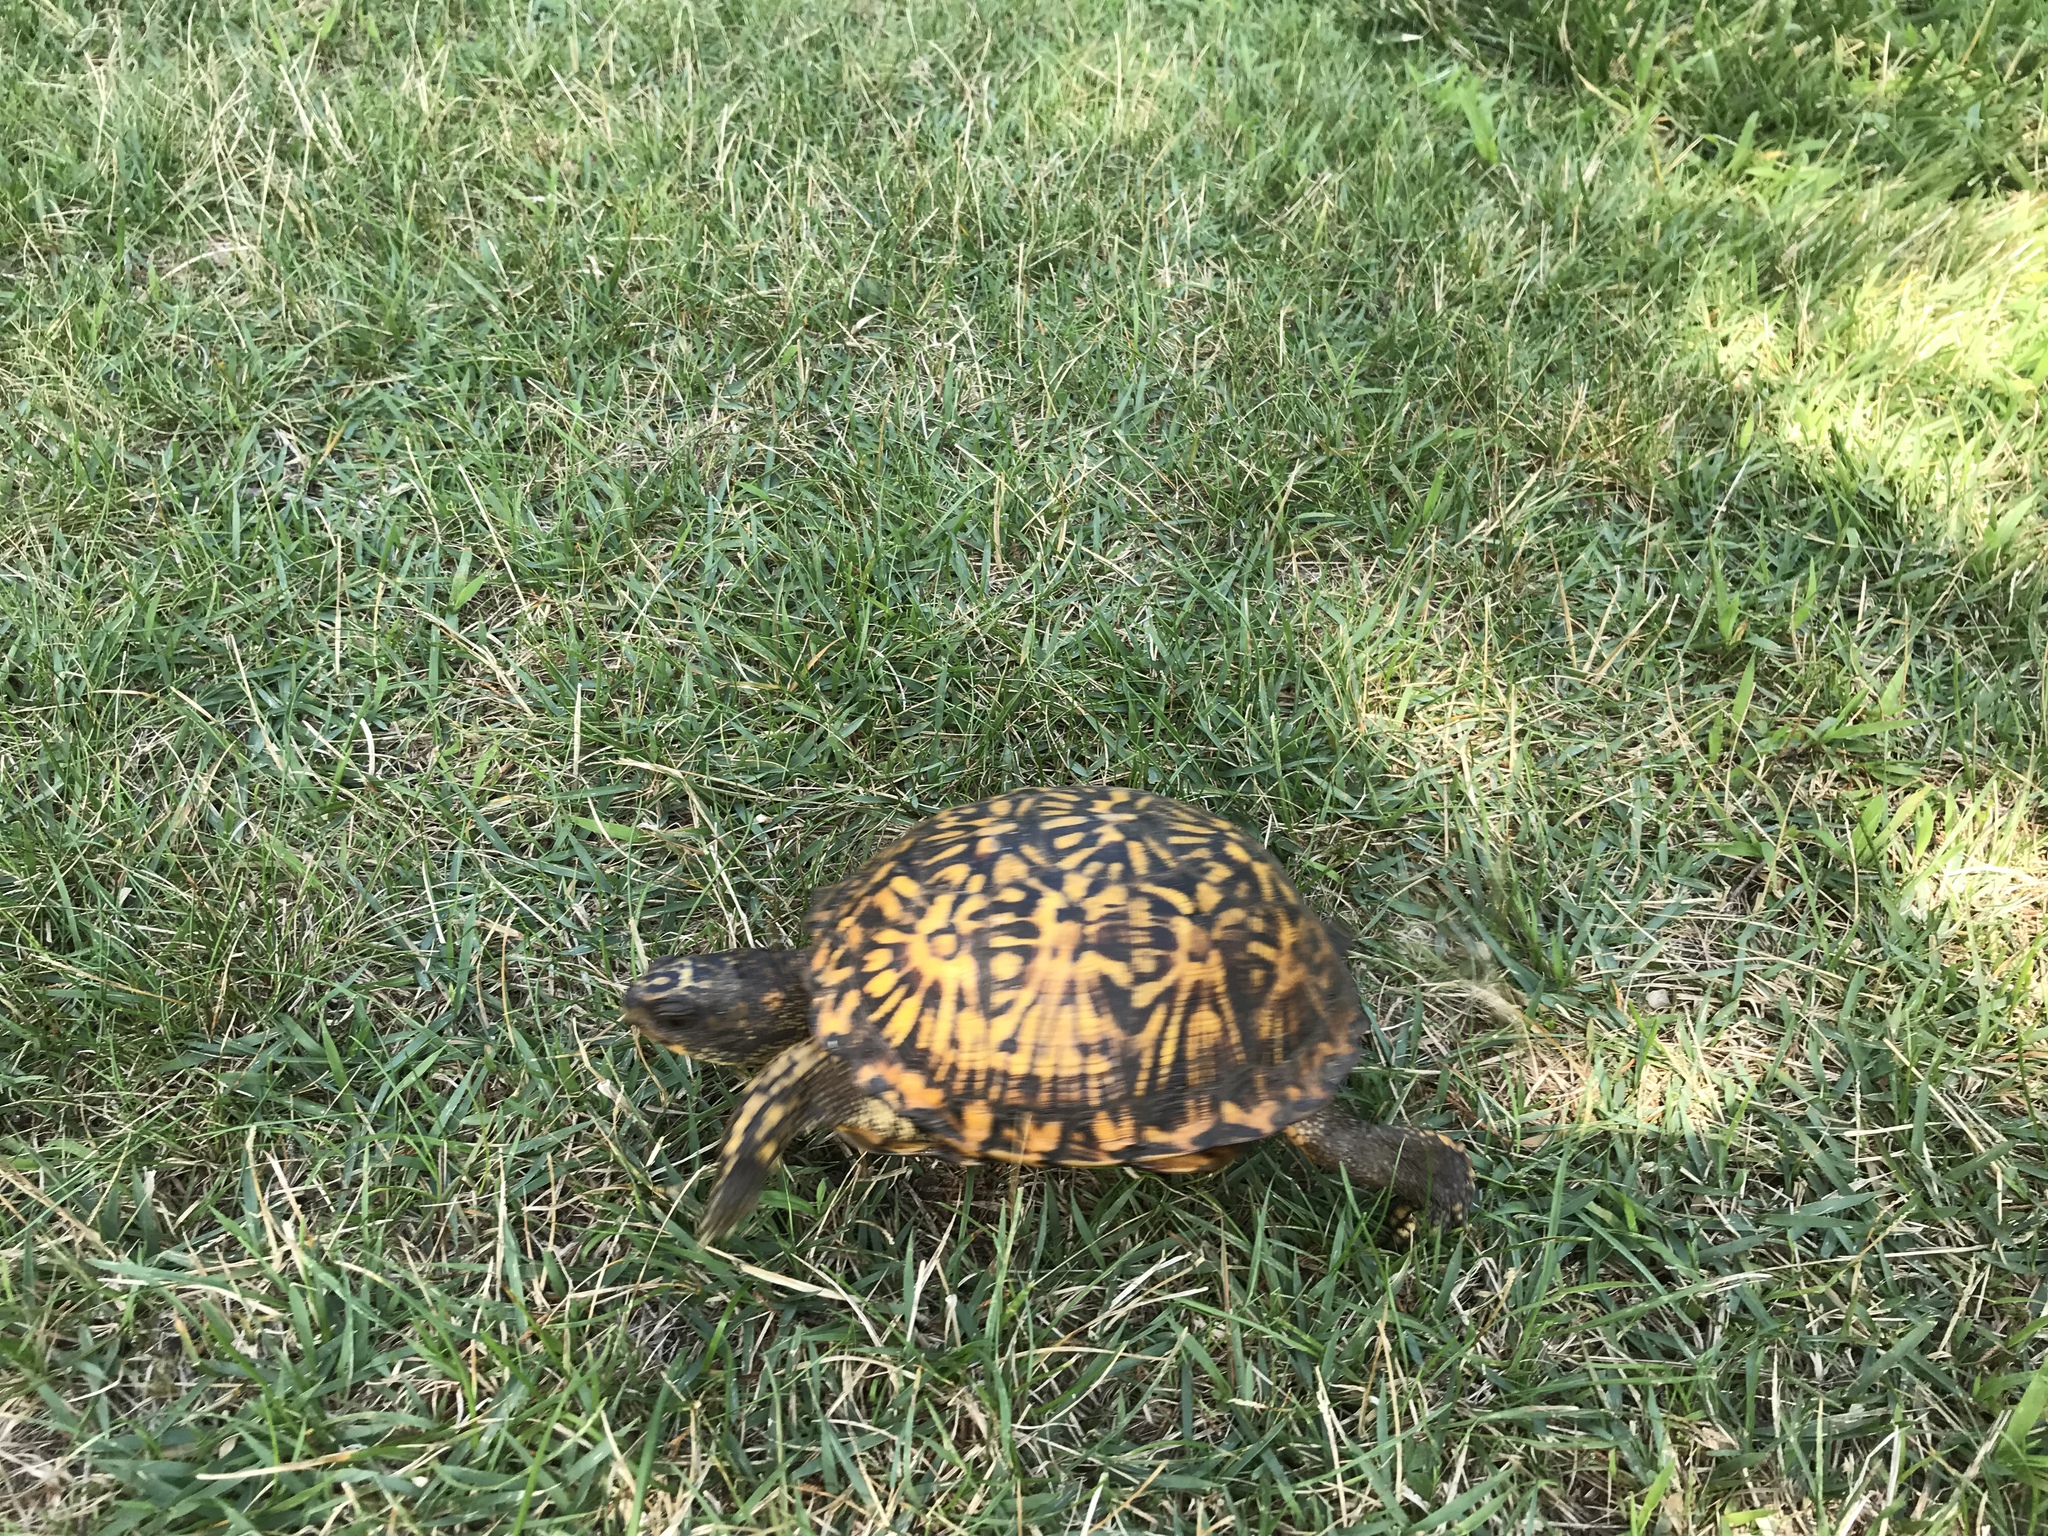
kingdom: Animalia
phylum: Chordata
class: Testudines
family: Emydidae
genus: Terrapene
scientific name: Terrapene carolina
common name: Common box turtle
